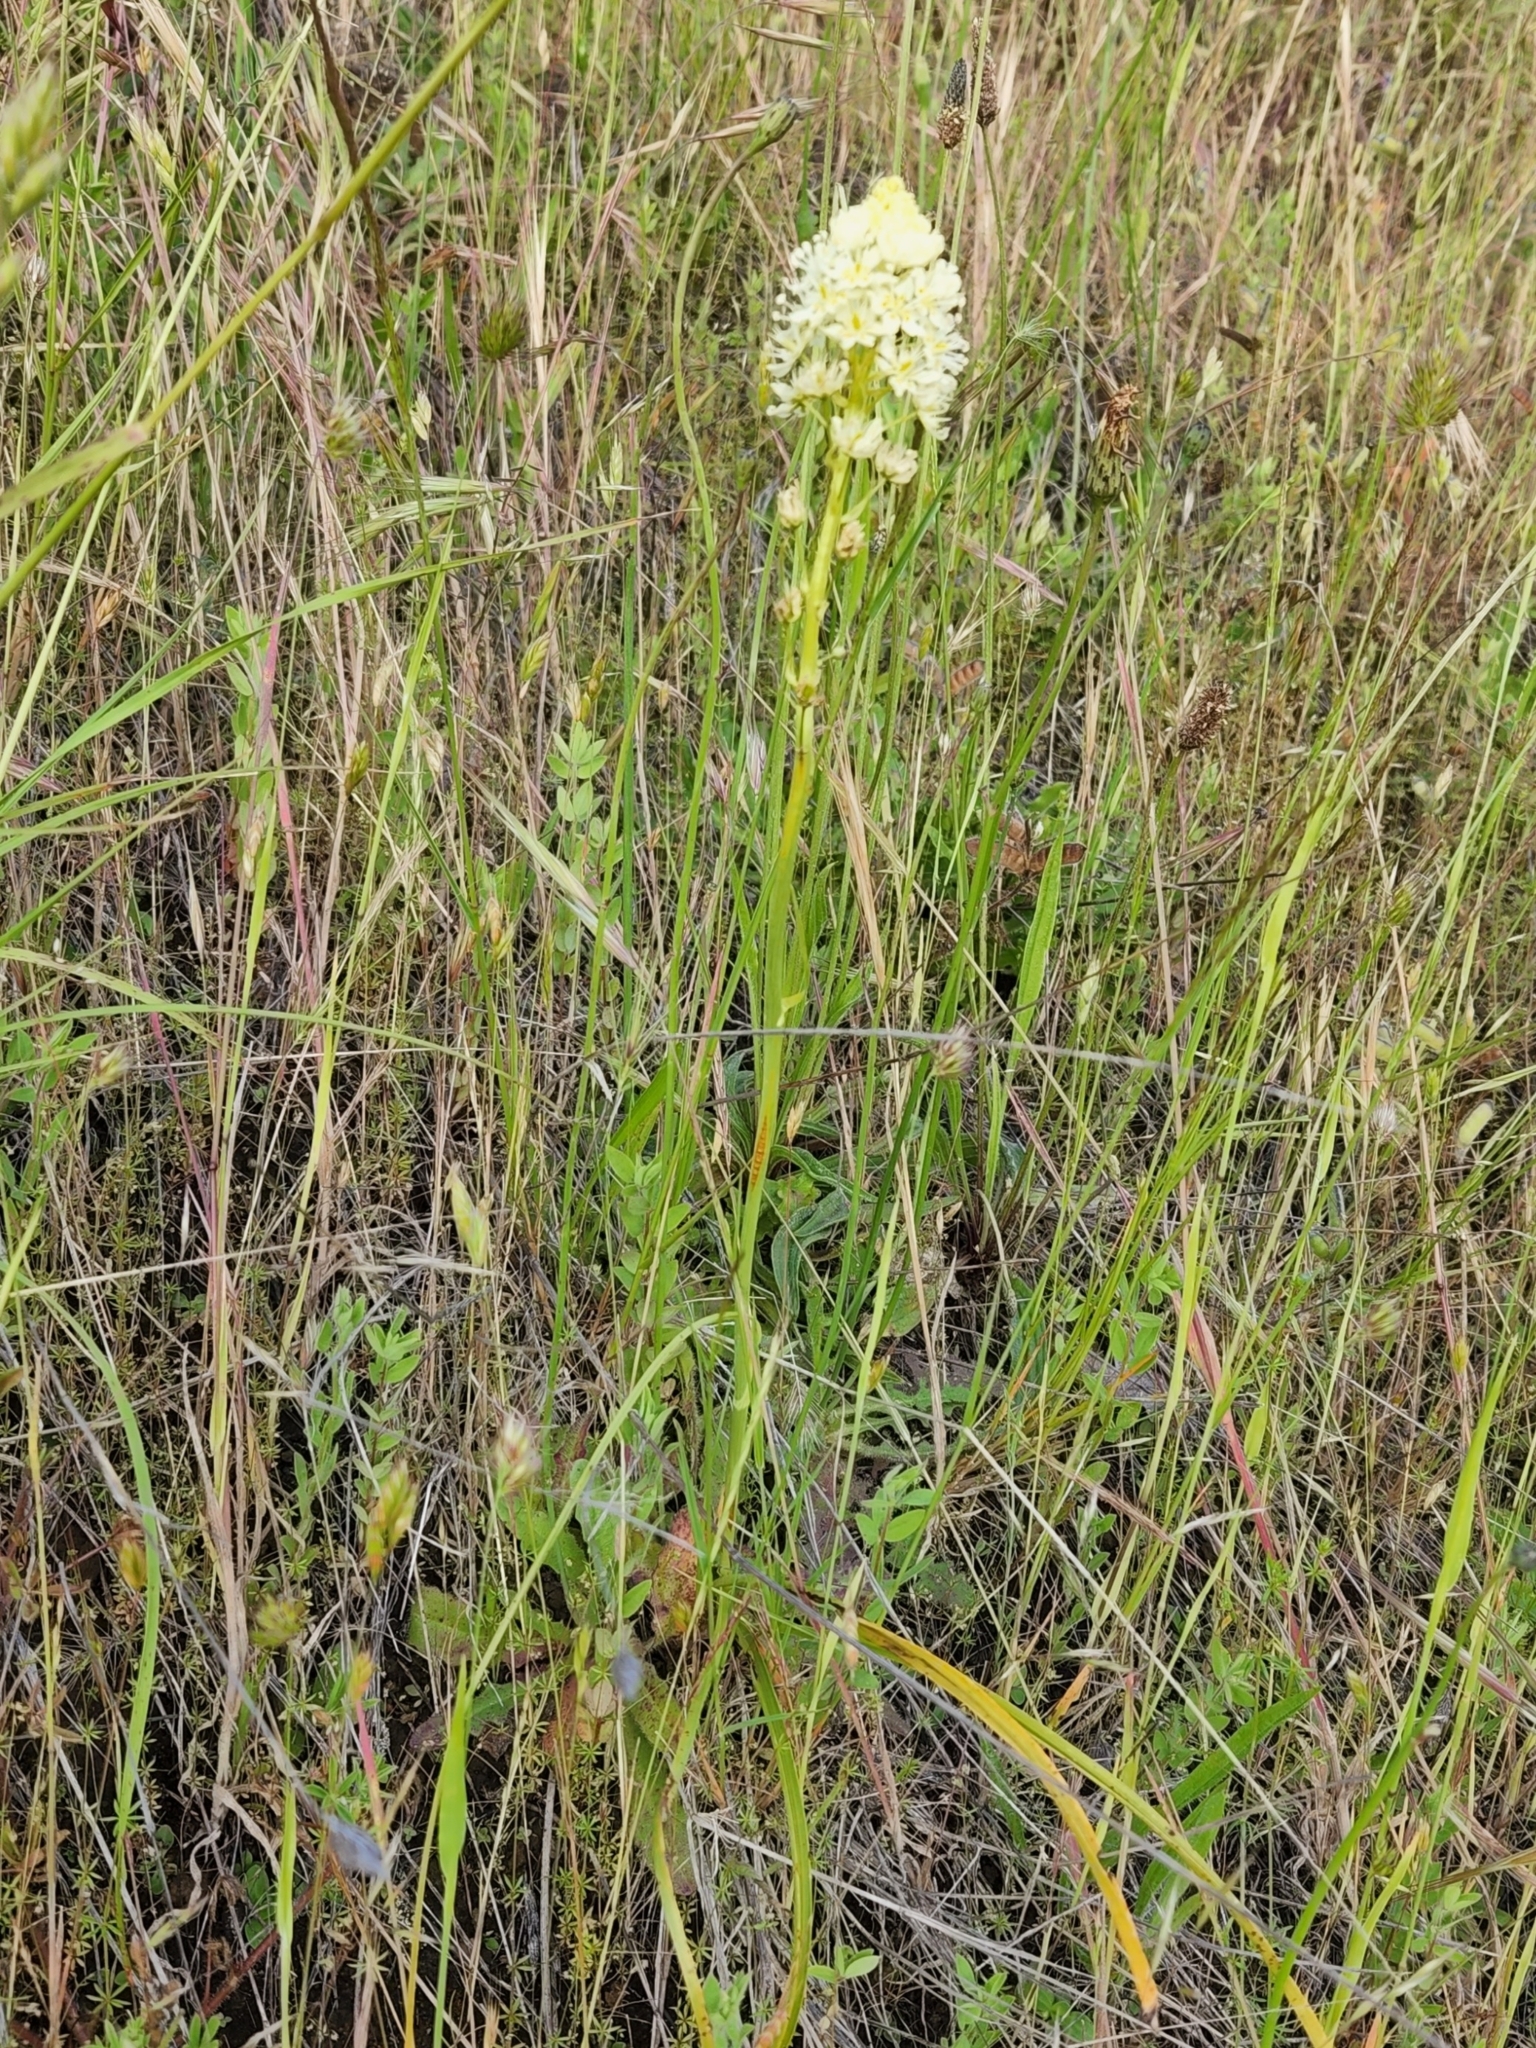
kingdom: Plantae
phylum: Tracheophyta
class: Liliopsida
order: Liliales
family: Melanthiaceae
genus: Toxicoscordion
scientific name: Toxicoscordion venenosum
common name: Meadow death camas
